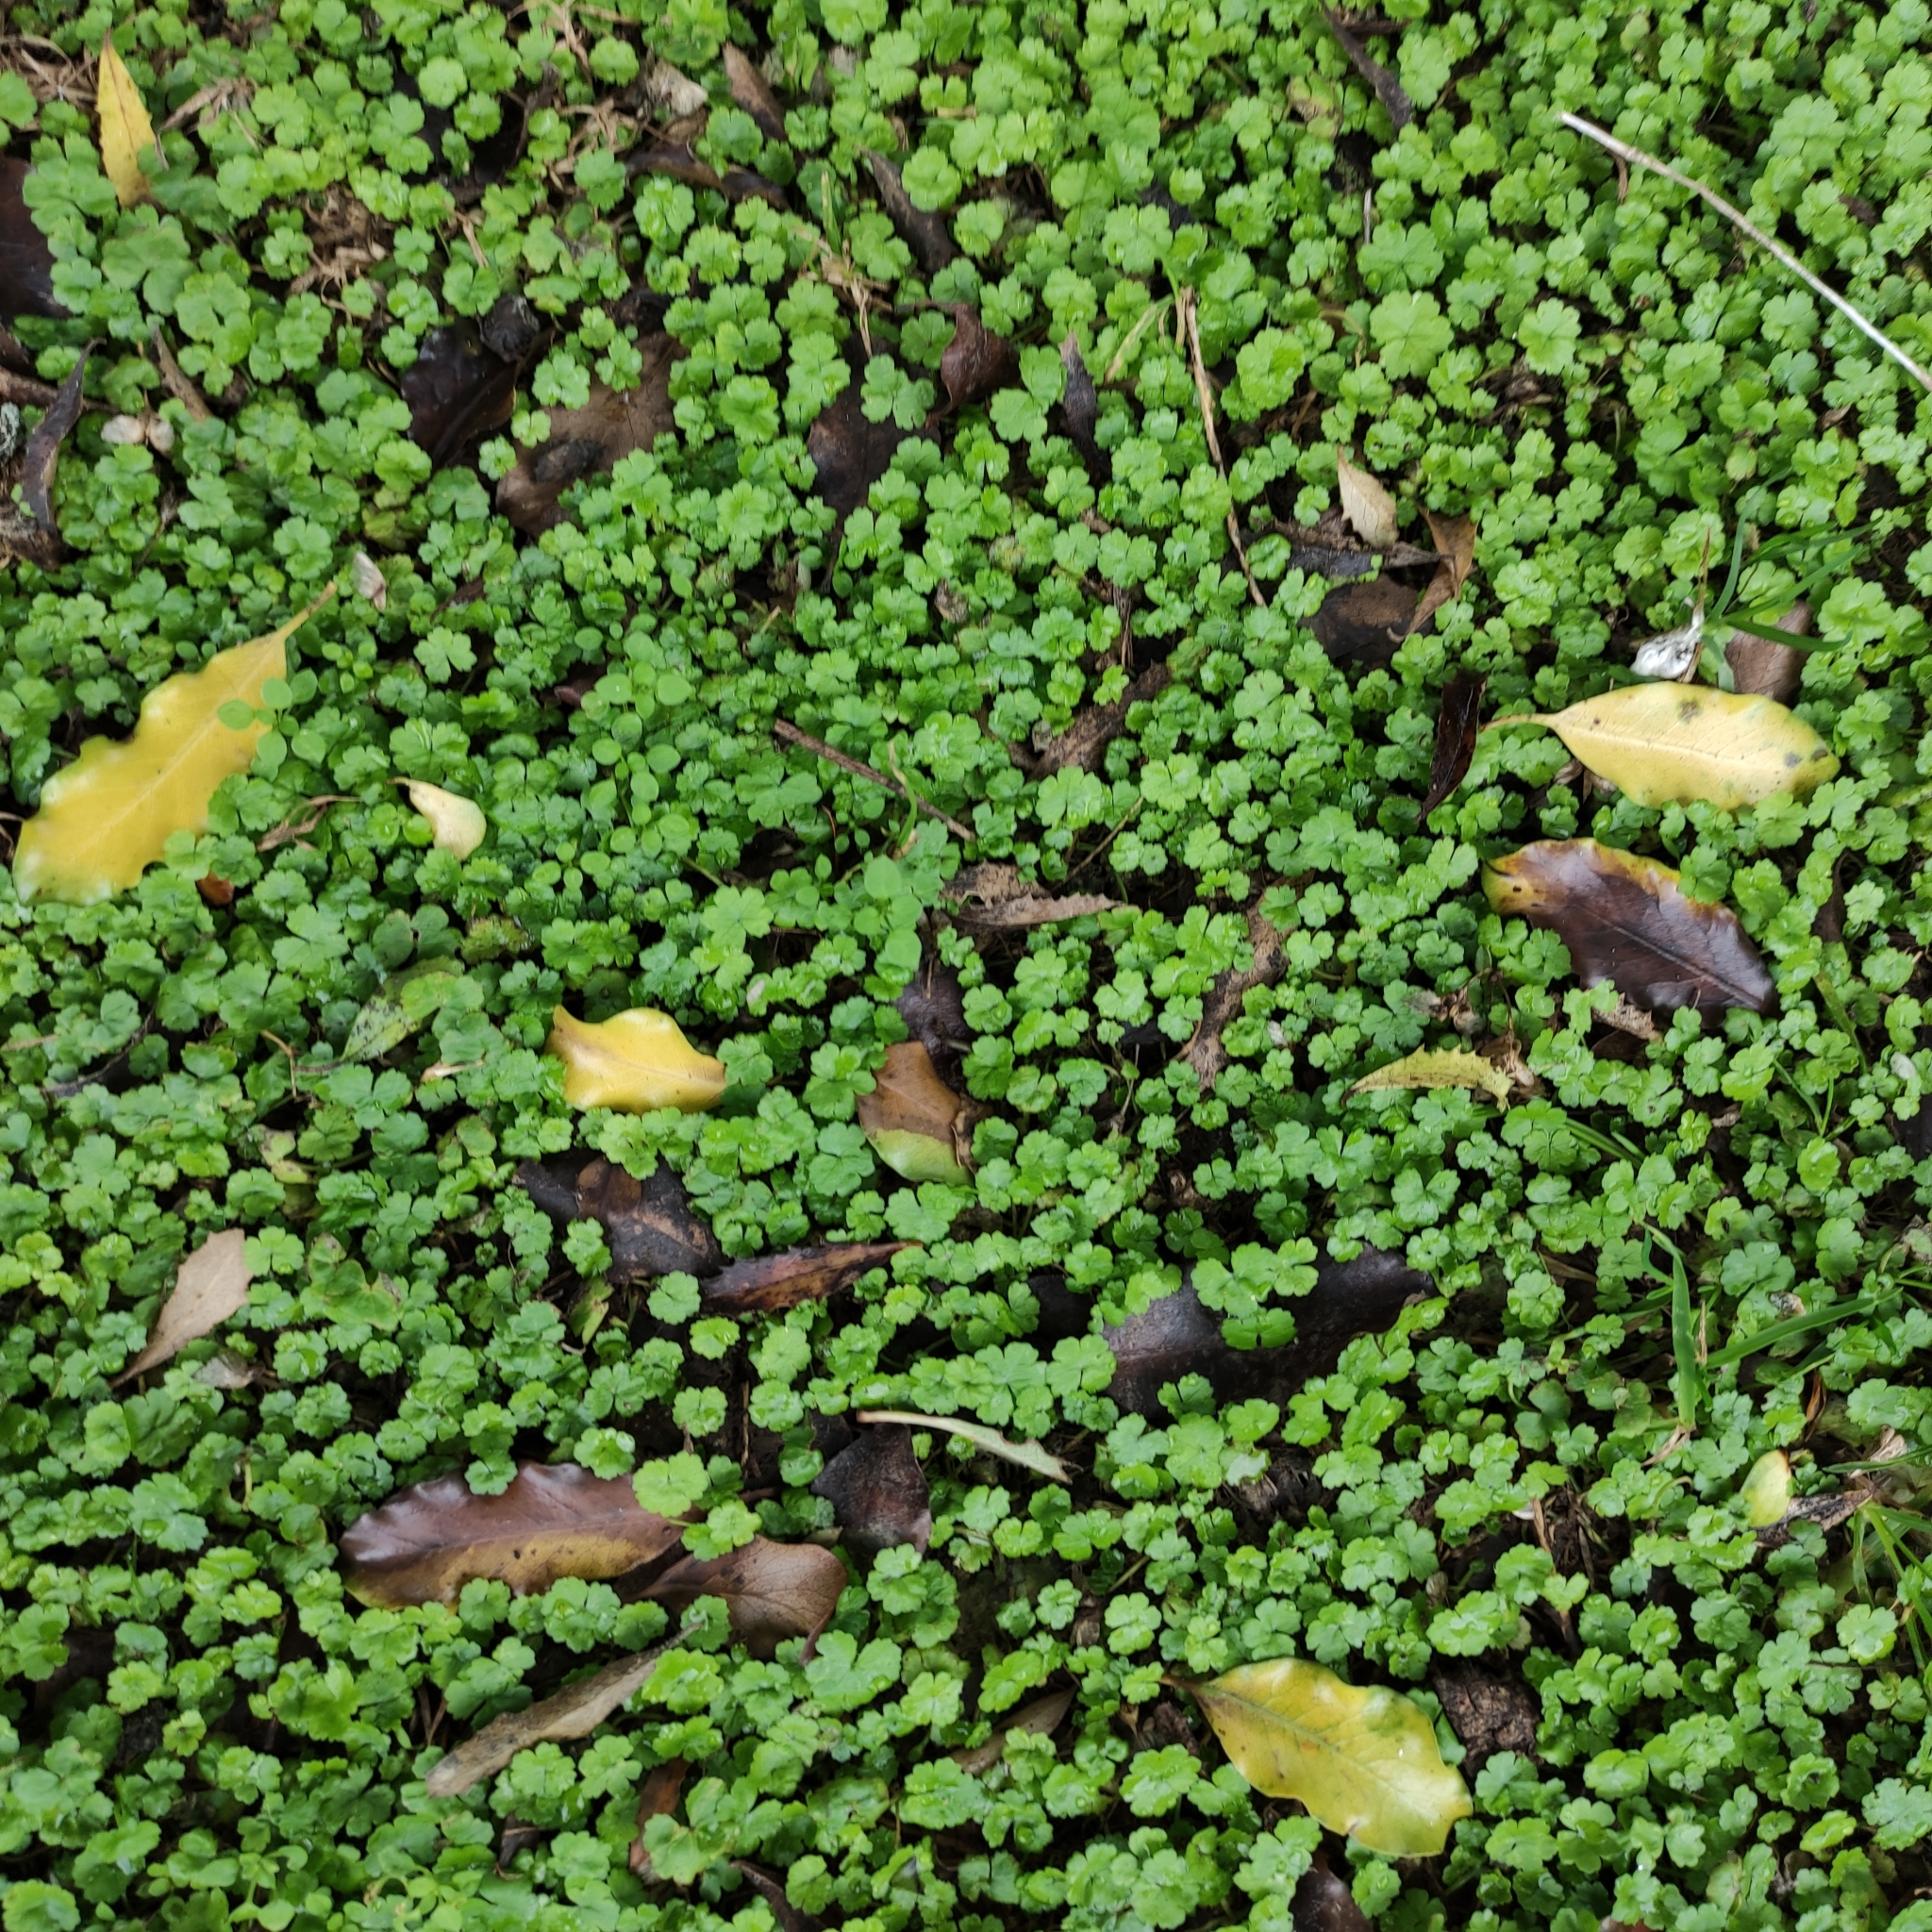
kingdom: Plantae
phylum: Tracheophyta
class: Magnoliopsida
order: Apiales
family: Araliaceae
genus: Hydrocotyle
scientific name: Hydrocotyle heteromeria
